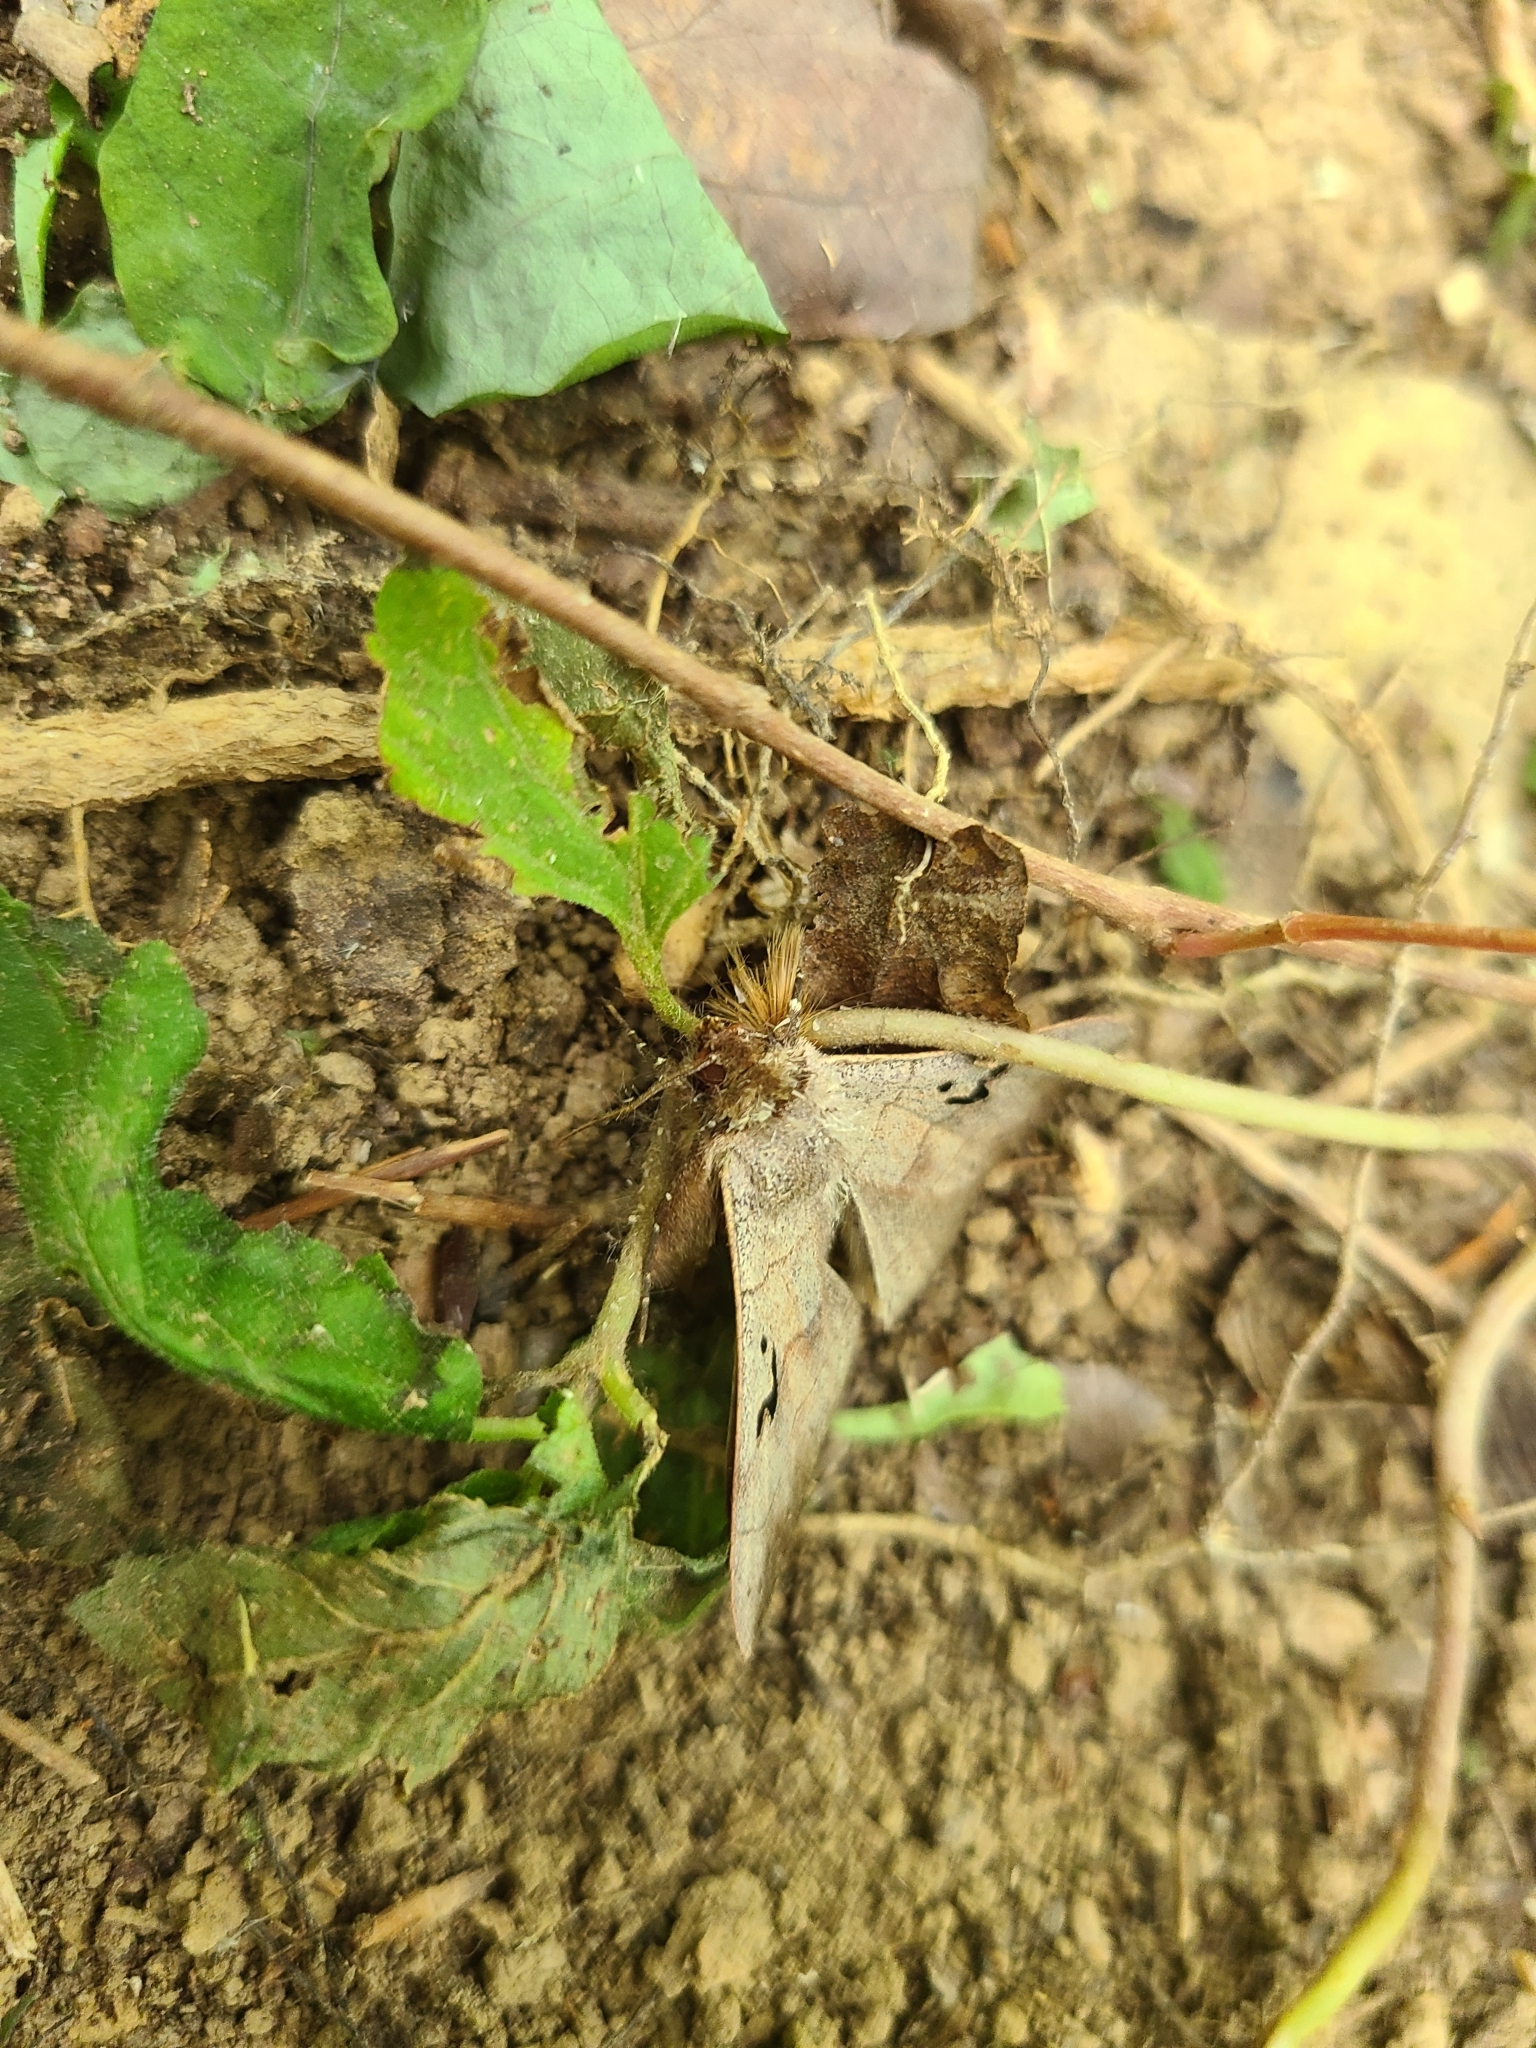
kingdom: Animalia
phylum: Arthropoda
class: Insecta
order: Lepidoptera
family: Erebidae
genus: Panopoda
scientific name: Panopoda carneicosta
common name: Brown panopoda moth
